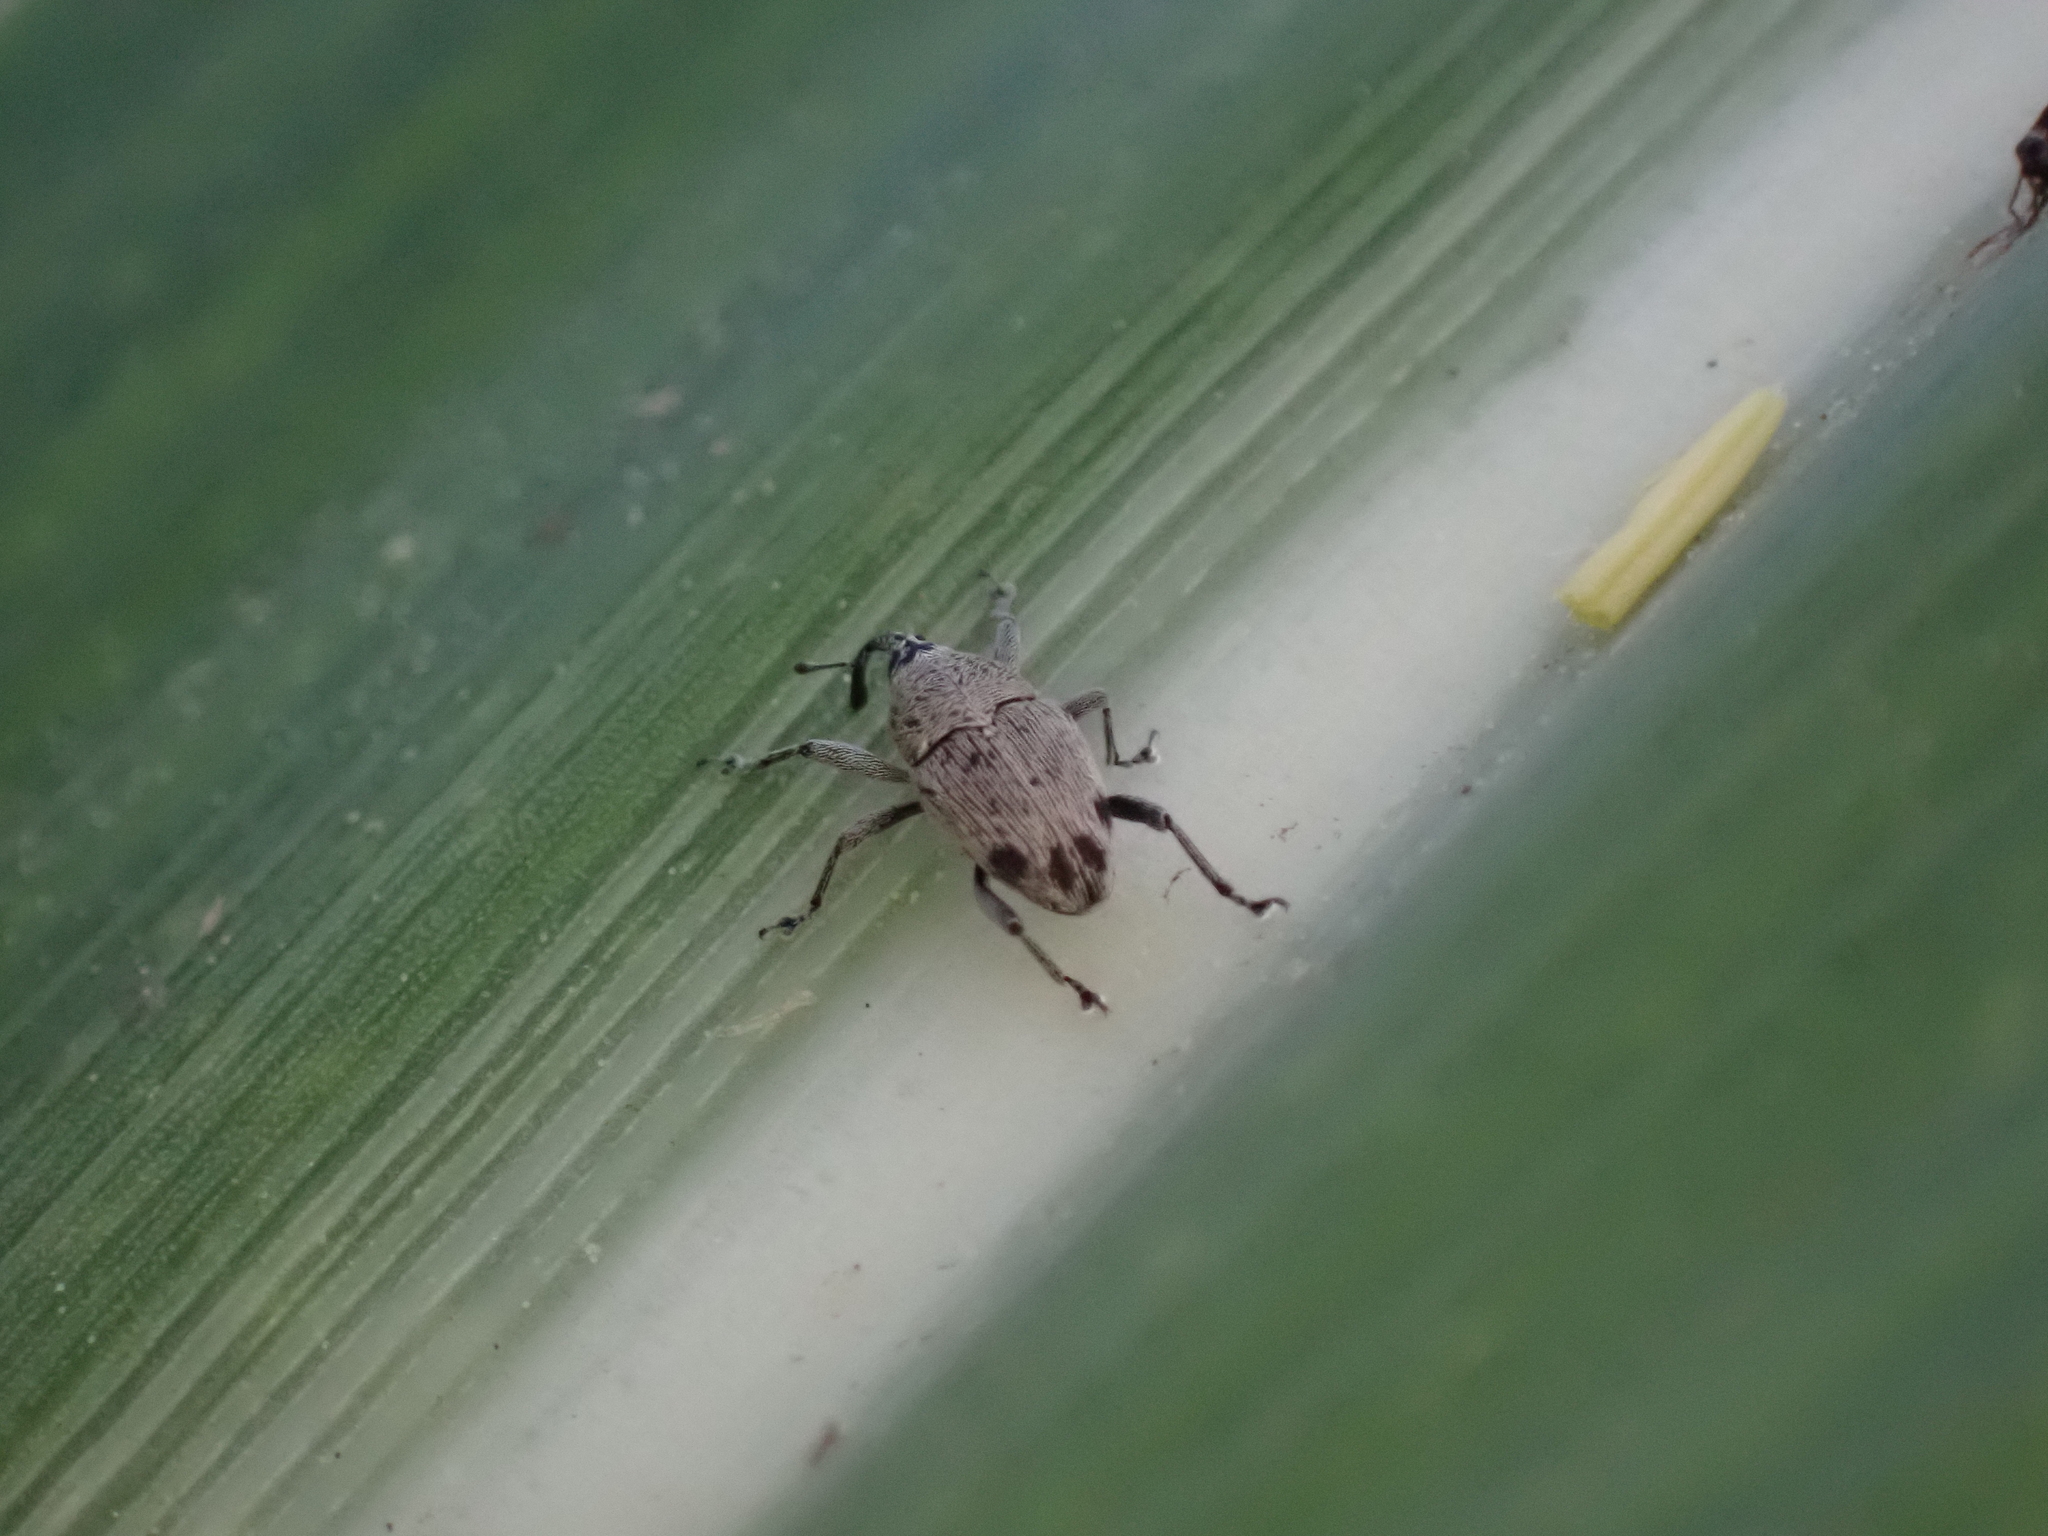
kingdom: Animalia
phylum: Arthropoda
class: Insecta
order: Coleoptera
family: Curculionidae
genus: Geraeus
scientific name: Geraeus
